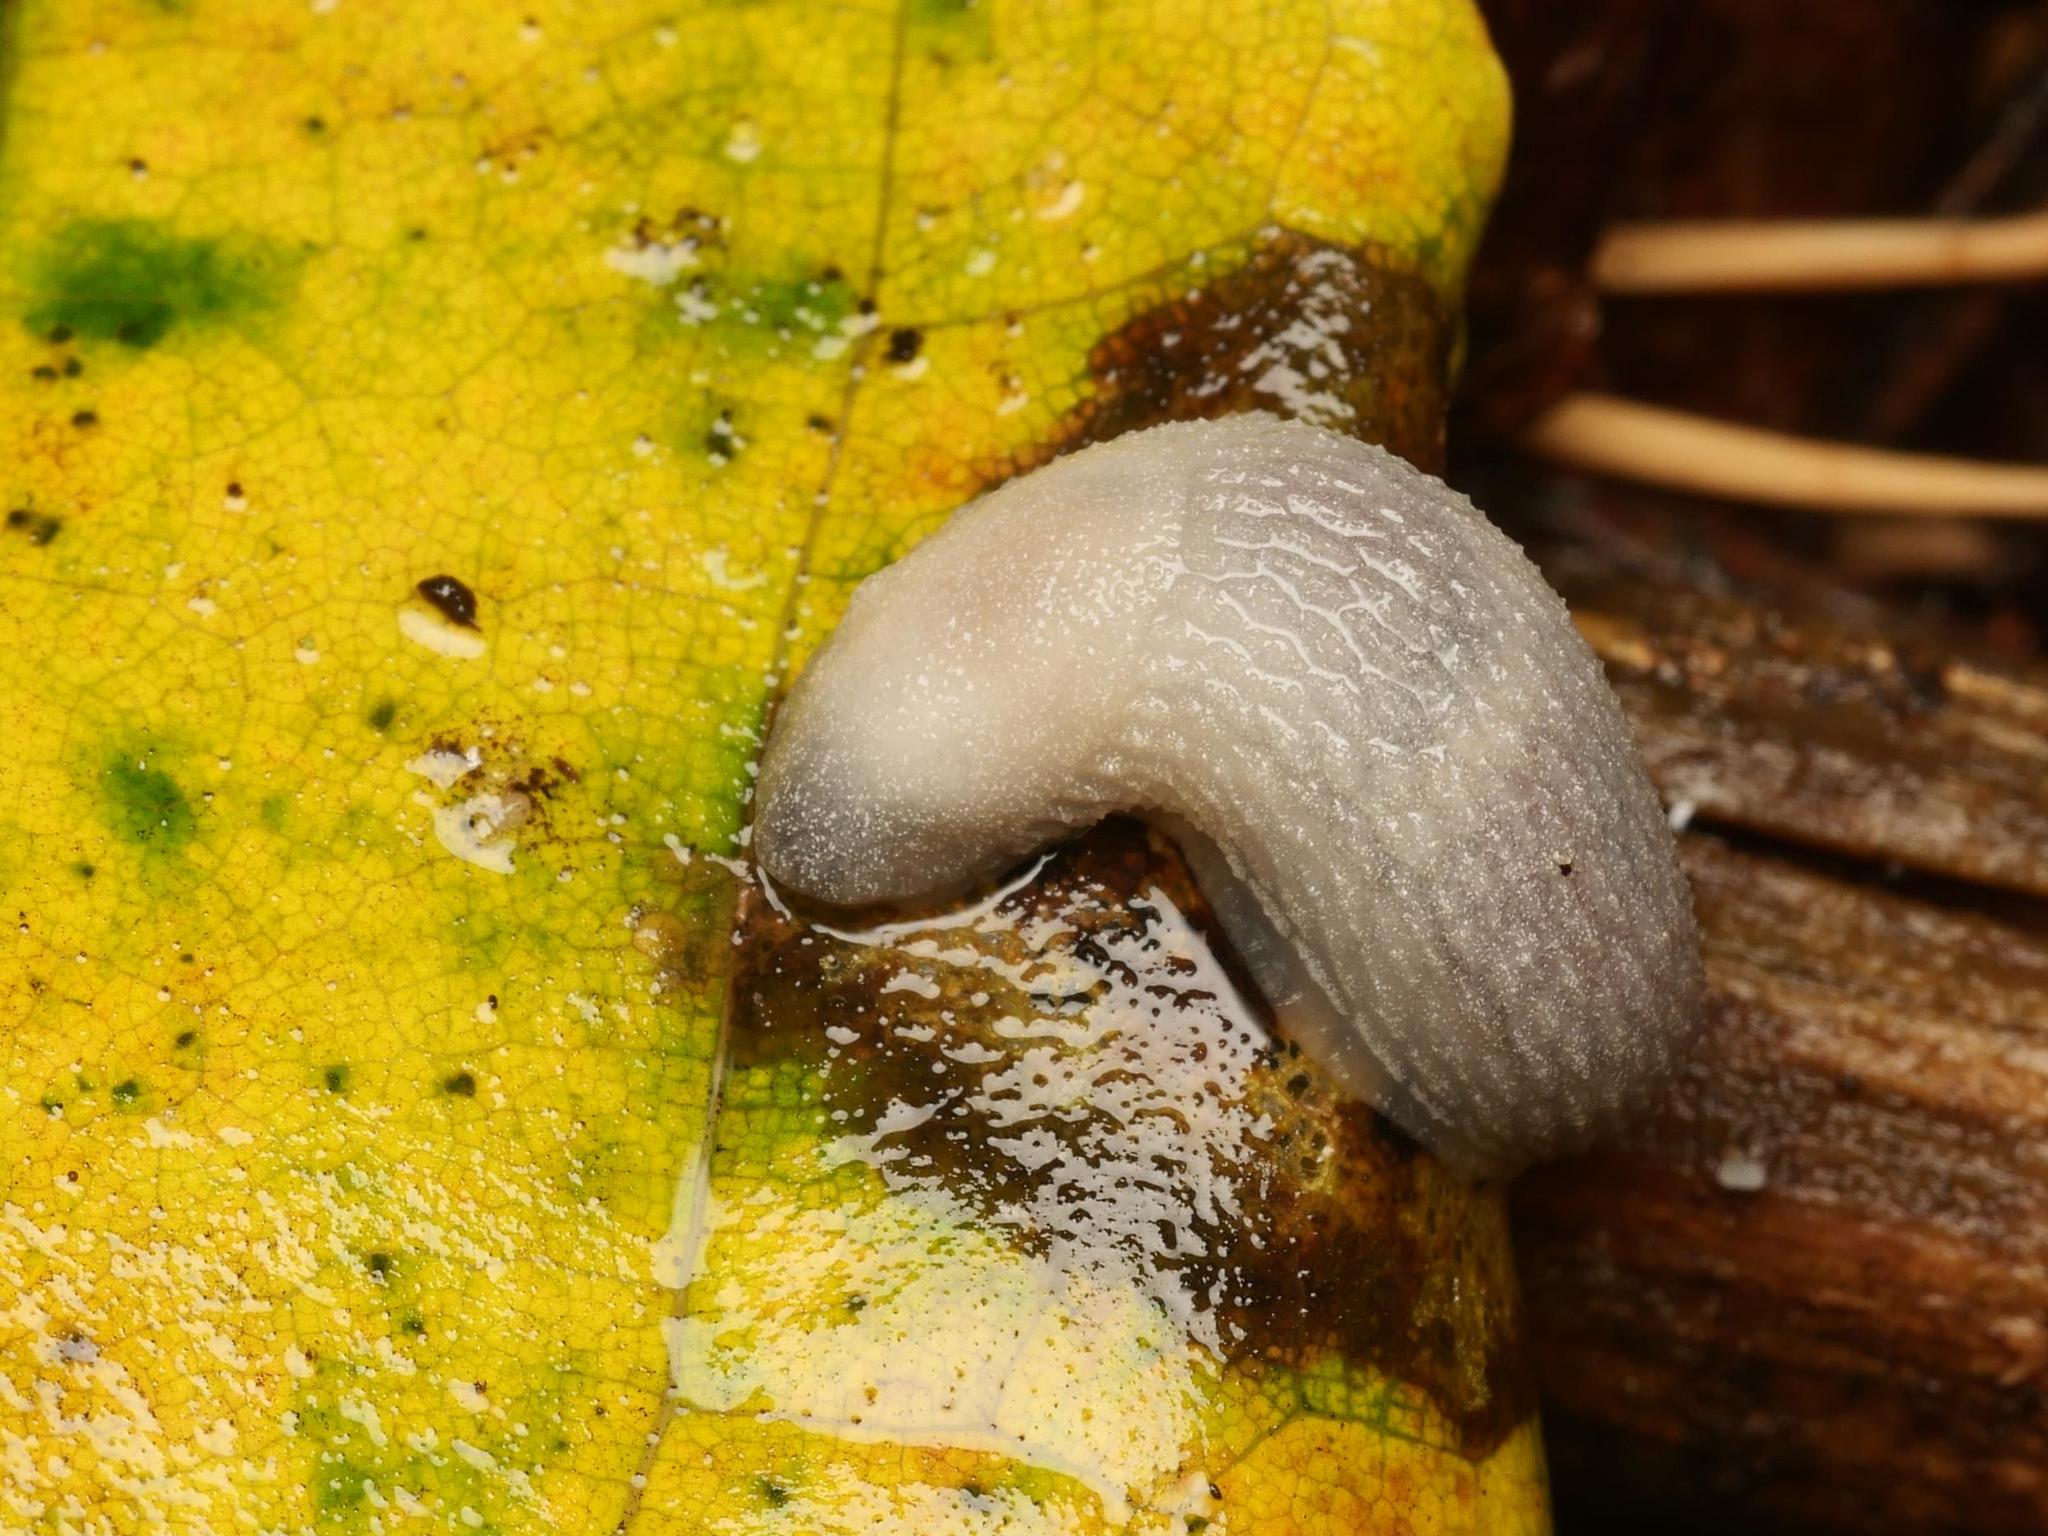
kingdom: Animalia
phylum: Mollusca
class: Gastropoda
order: Stylommatophora
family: Arionidae
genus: Arion
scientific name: Arion intermedius
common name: Hedgehog slug
